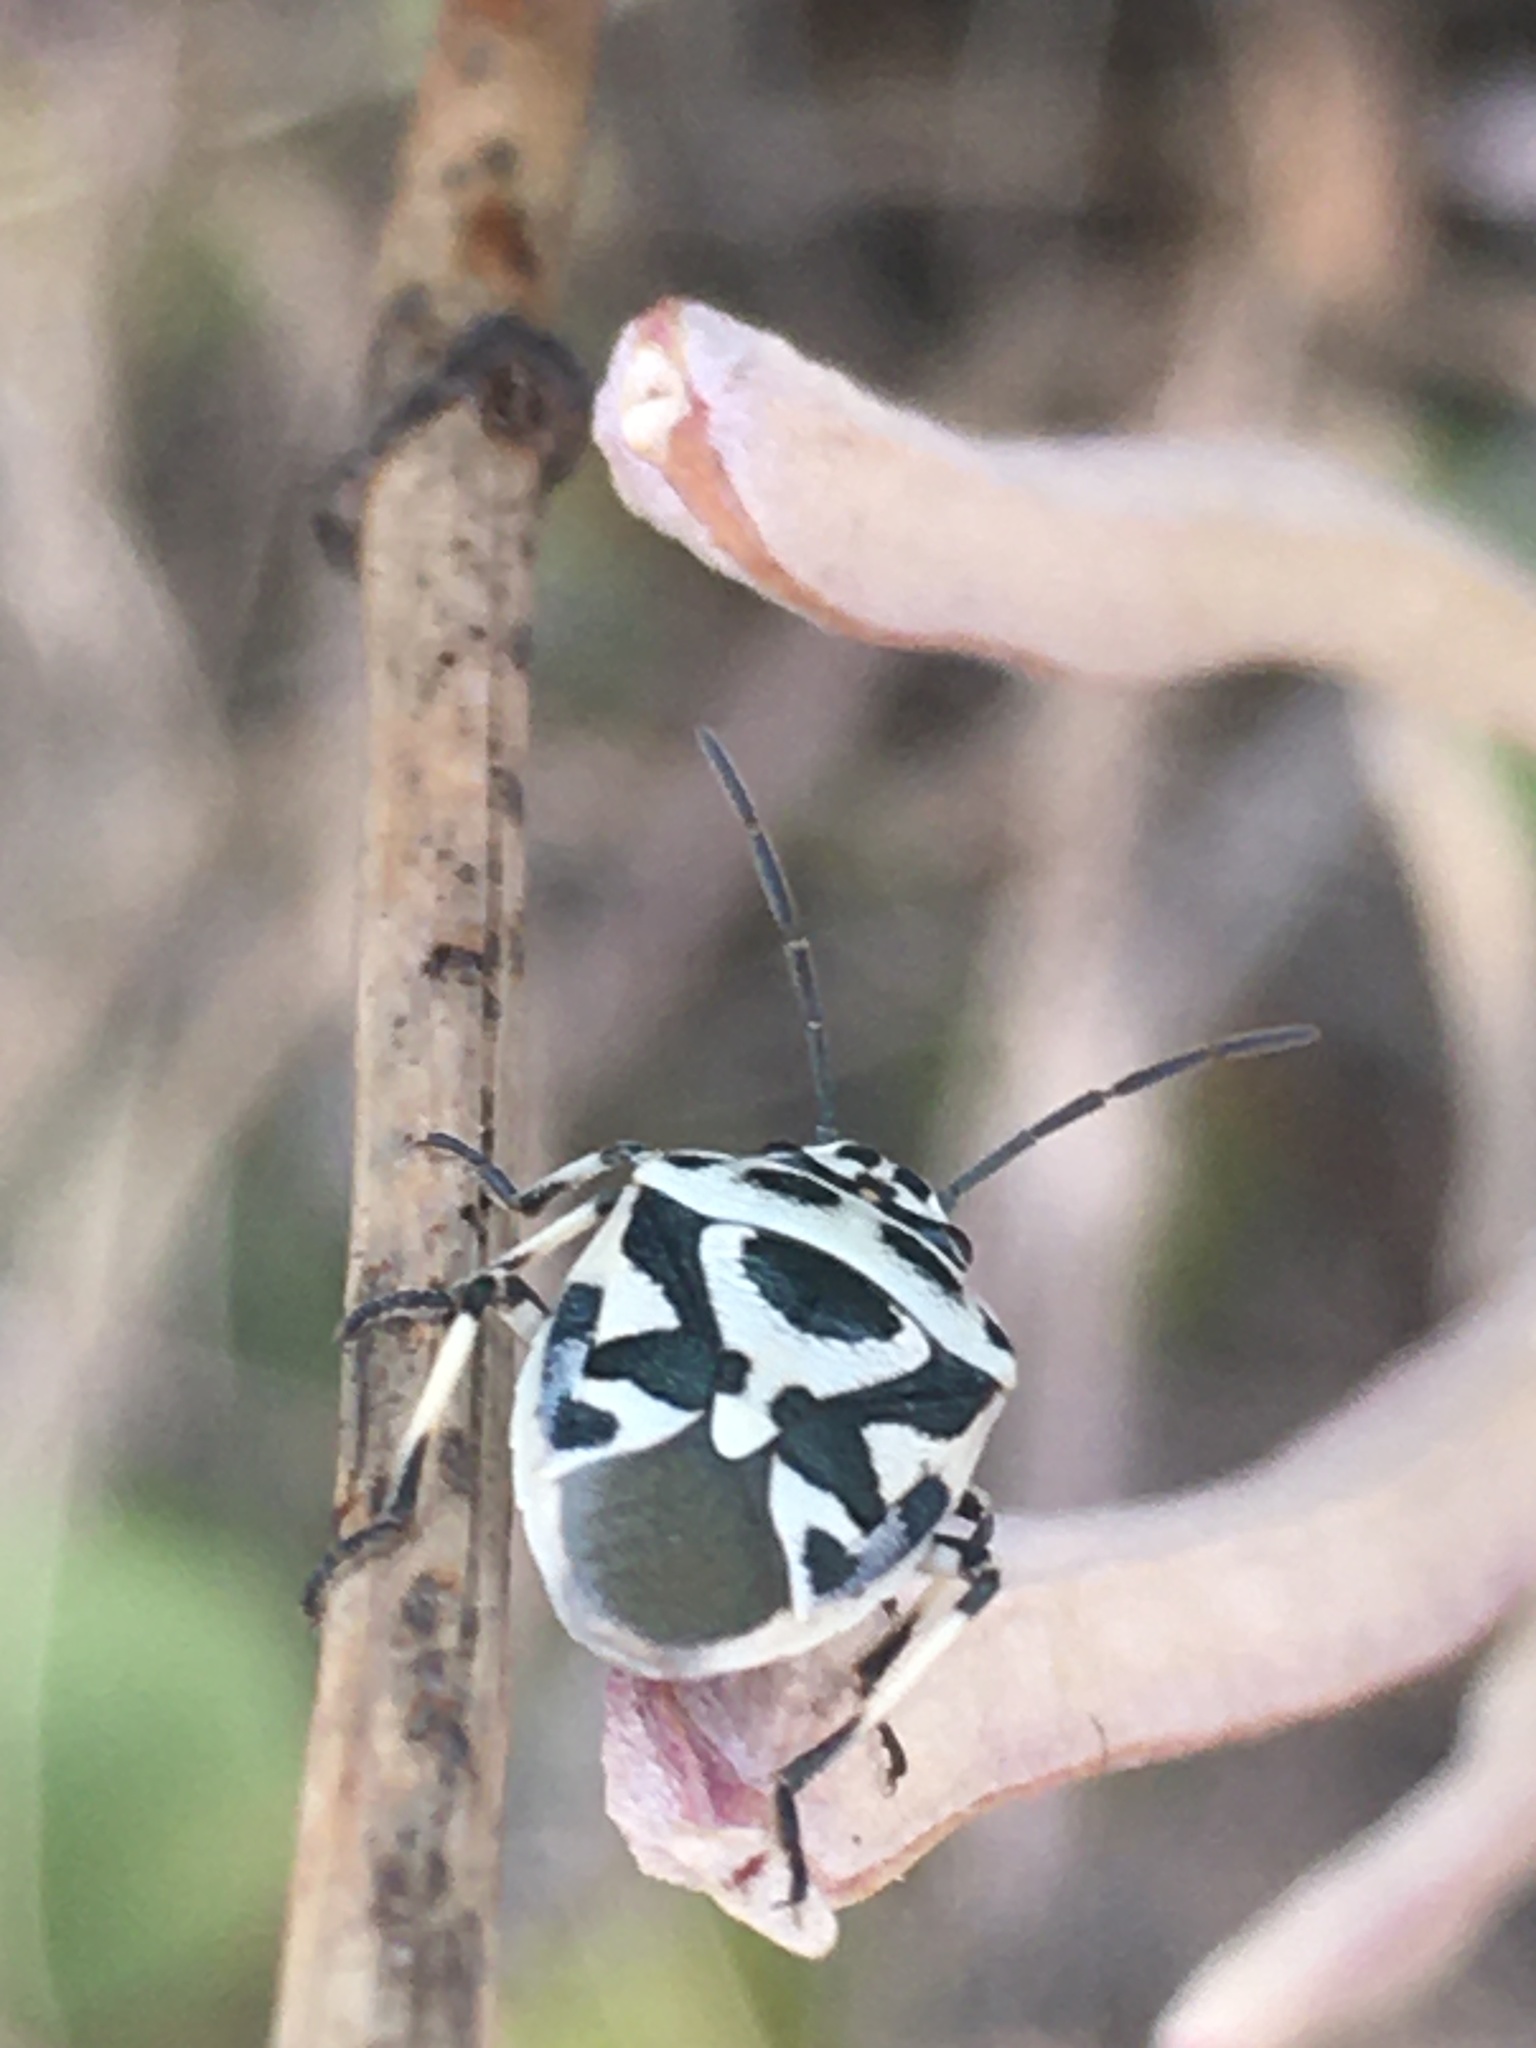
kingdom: Animalia
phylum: Arthropoda
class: Insecta
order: Hemiptera
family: Pentatomidae
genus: Eurydema
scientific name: Eurydema ornata
